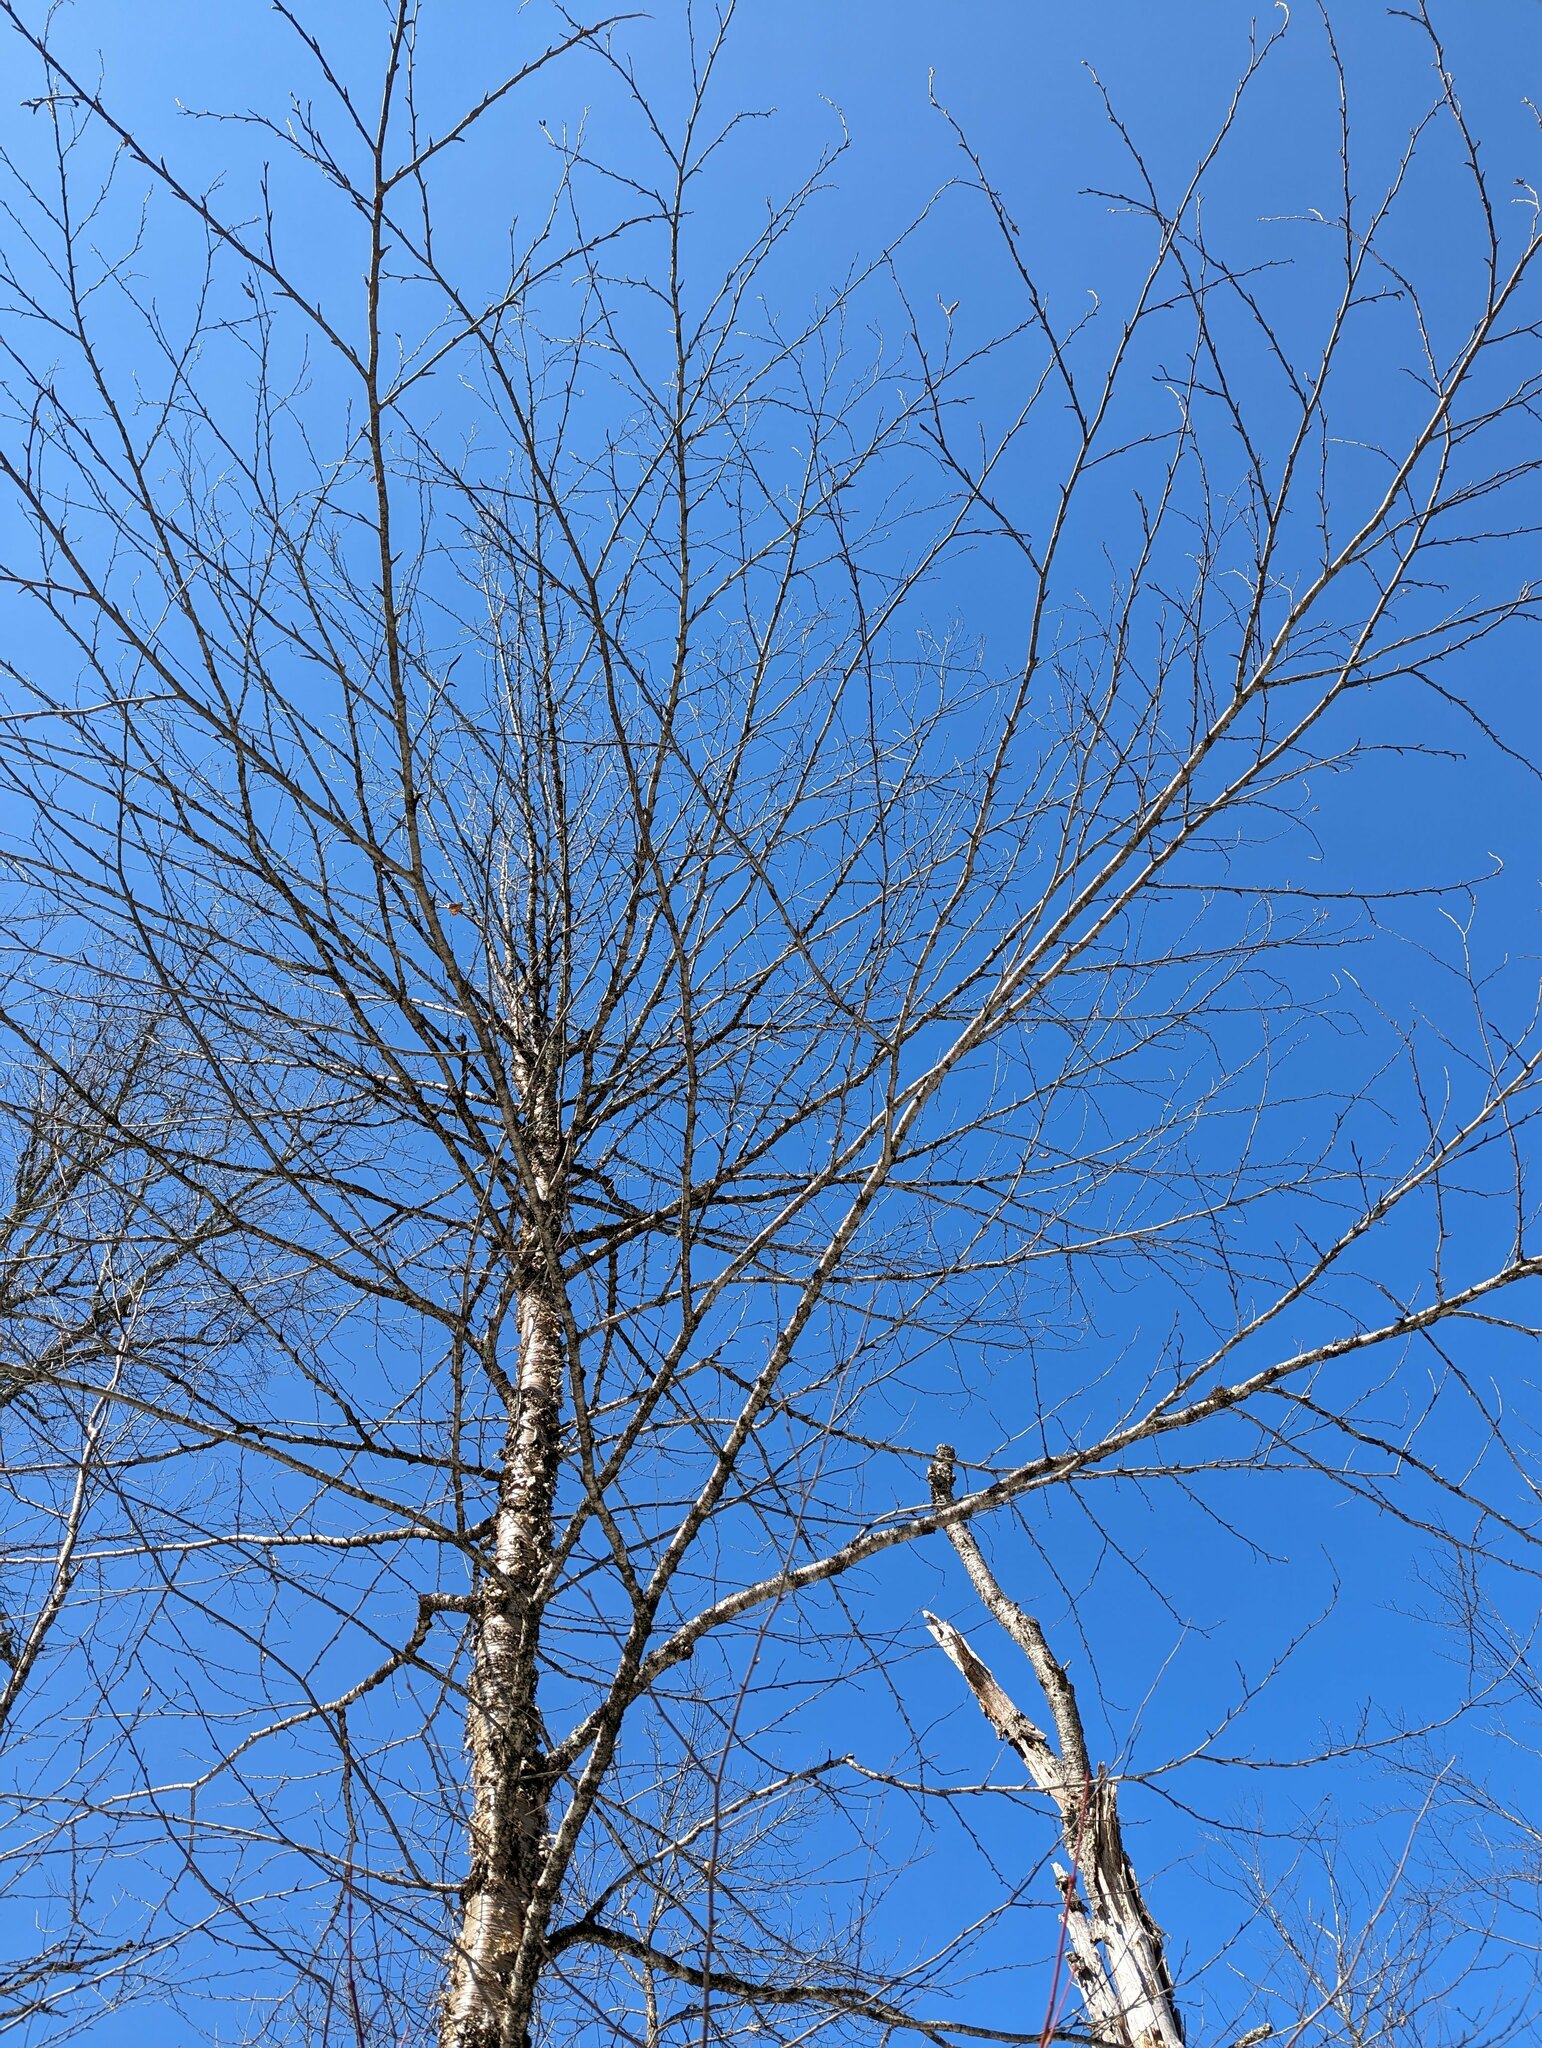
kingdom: Plantae
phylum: Tracheophyta
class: Magnoliopsida
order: Fagales
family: Betulaceae
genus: Betula
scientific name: Betula alleghaniensis
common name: Yellow birch
